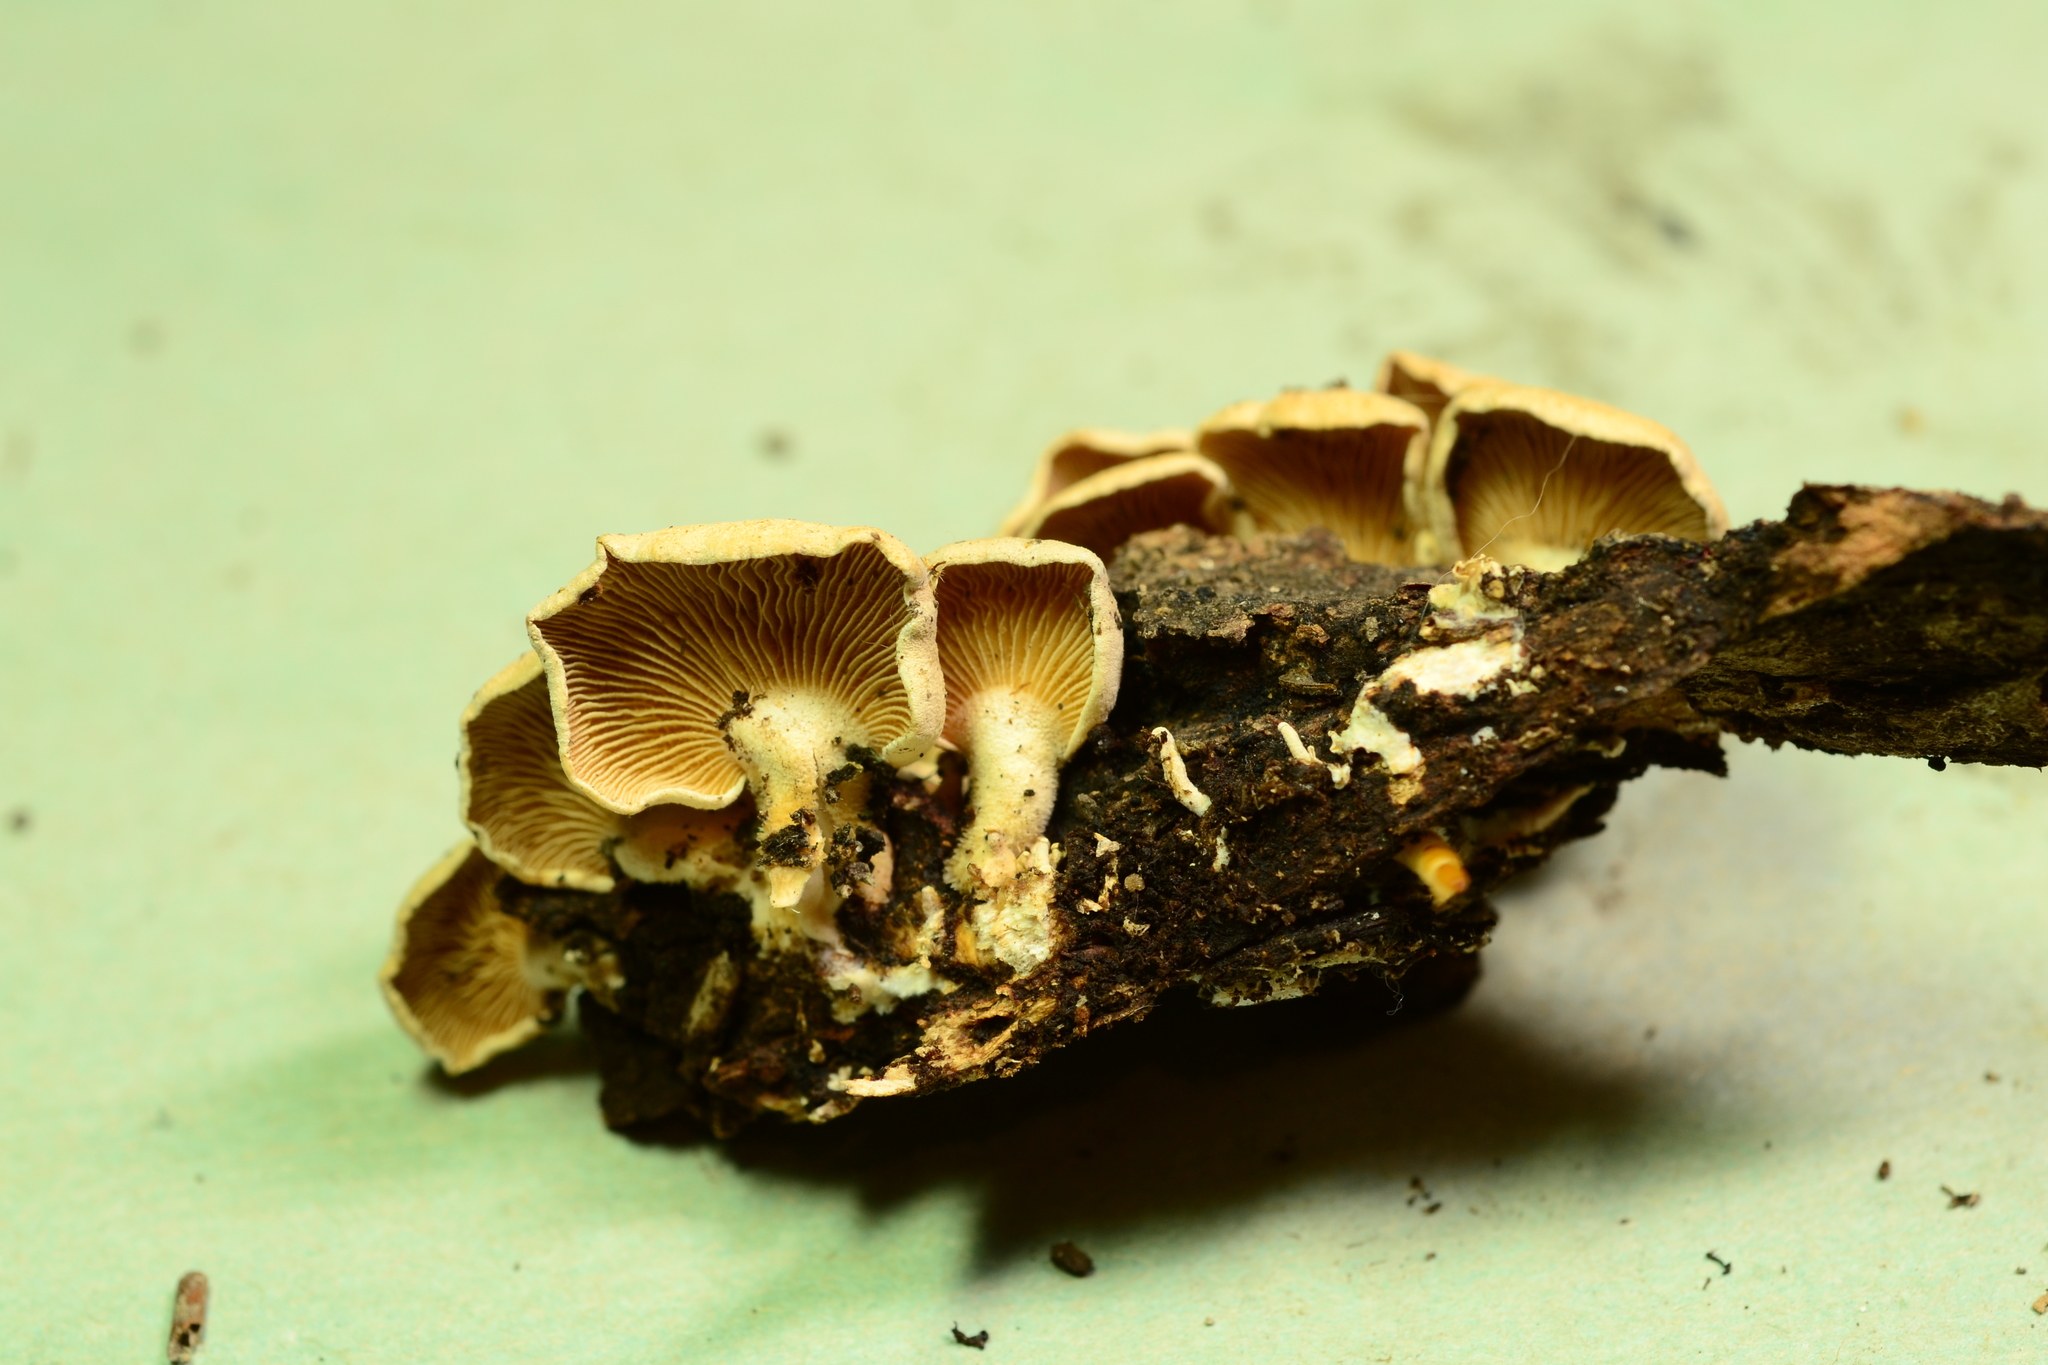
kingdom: Fungi
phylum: Basidiomycota
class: Agaricomycetes
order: Agaricales
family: Mycenaceae
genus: Panellus
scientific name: Panellus stipticus
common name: Bitter oysterling
